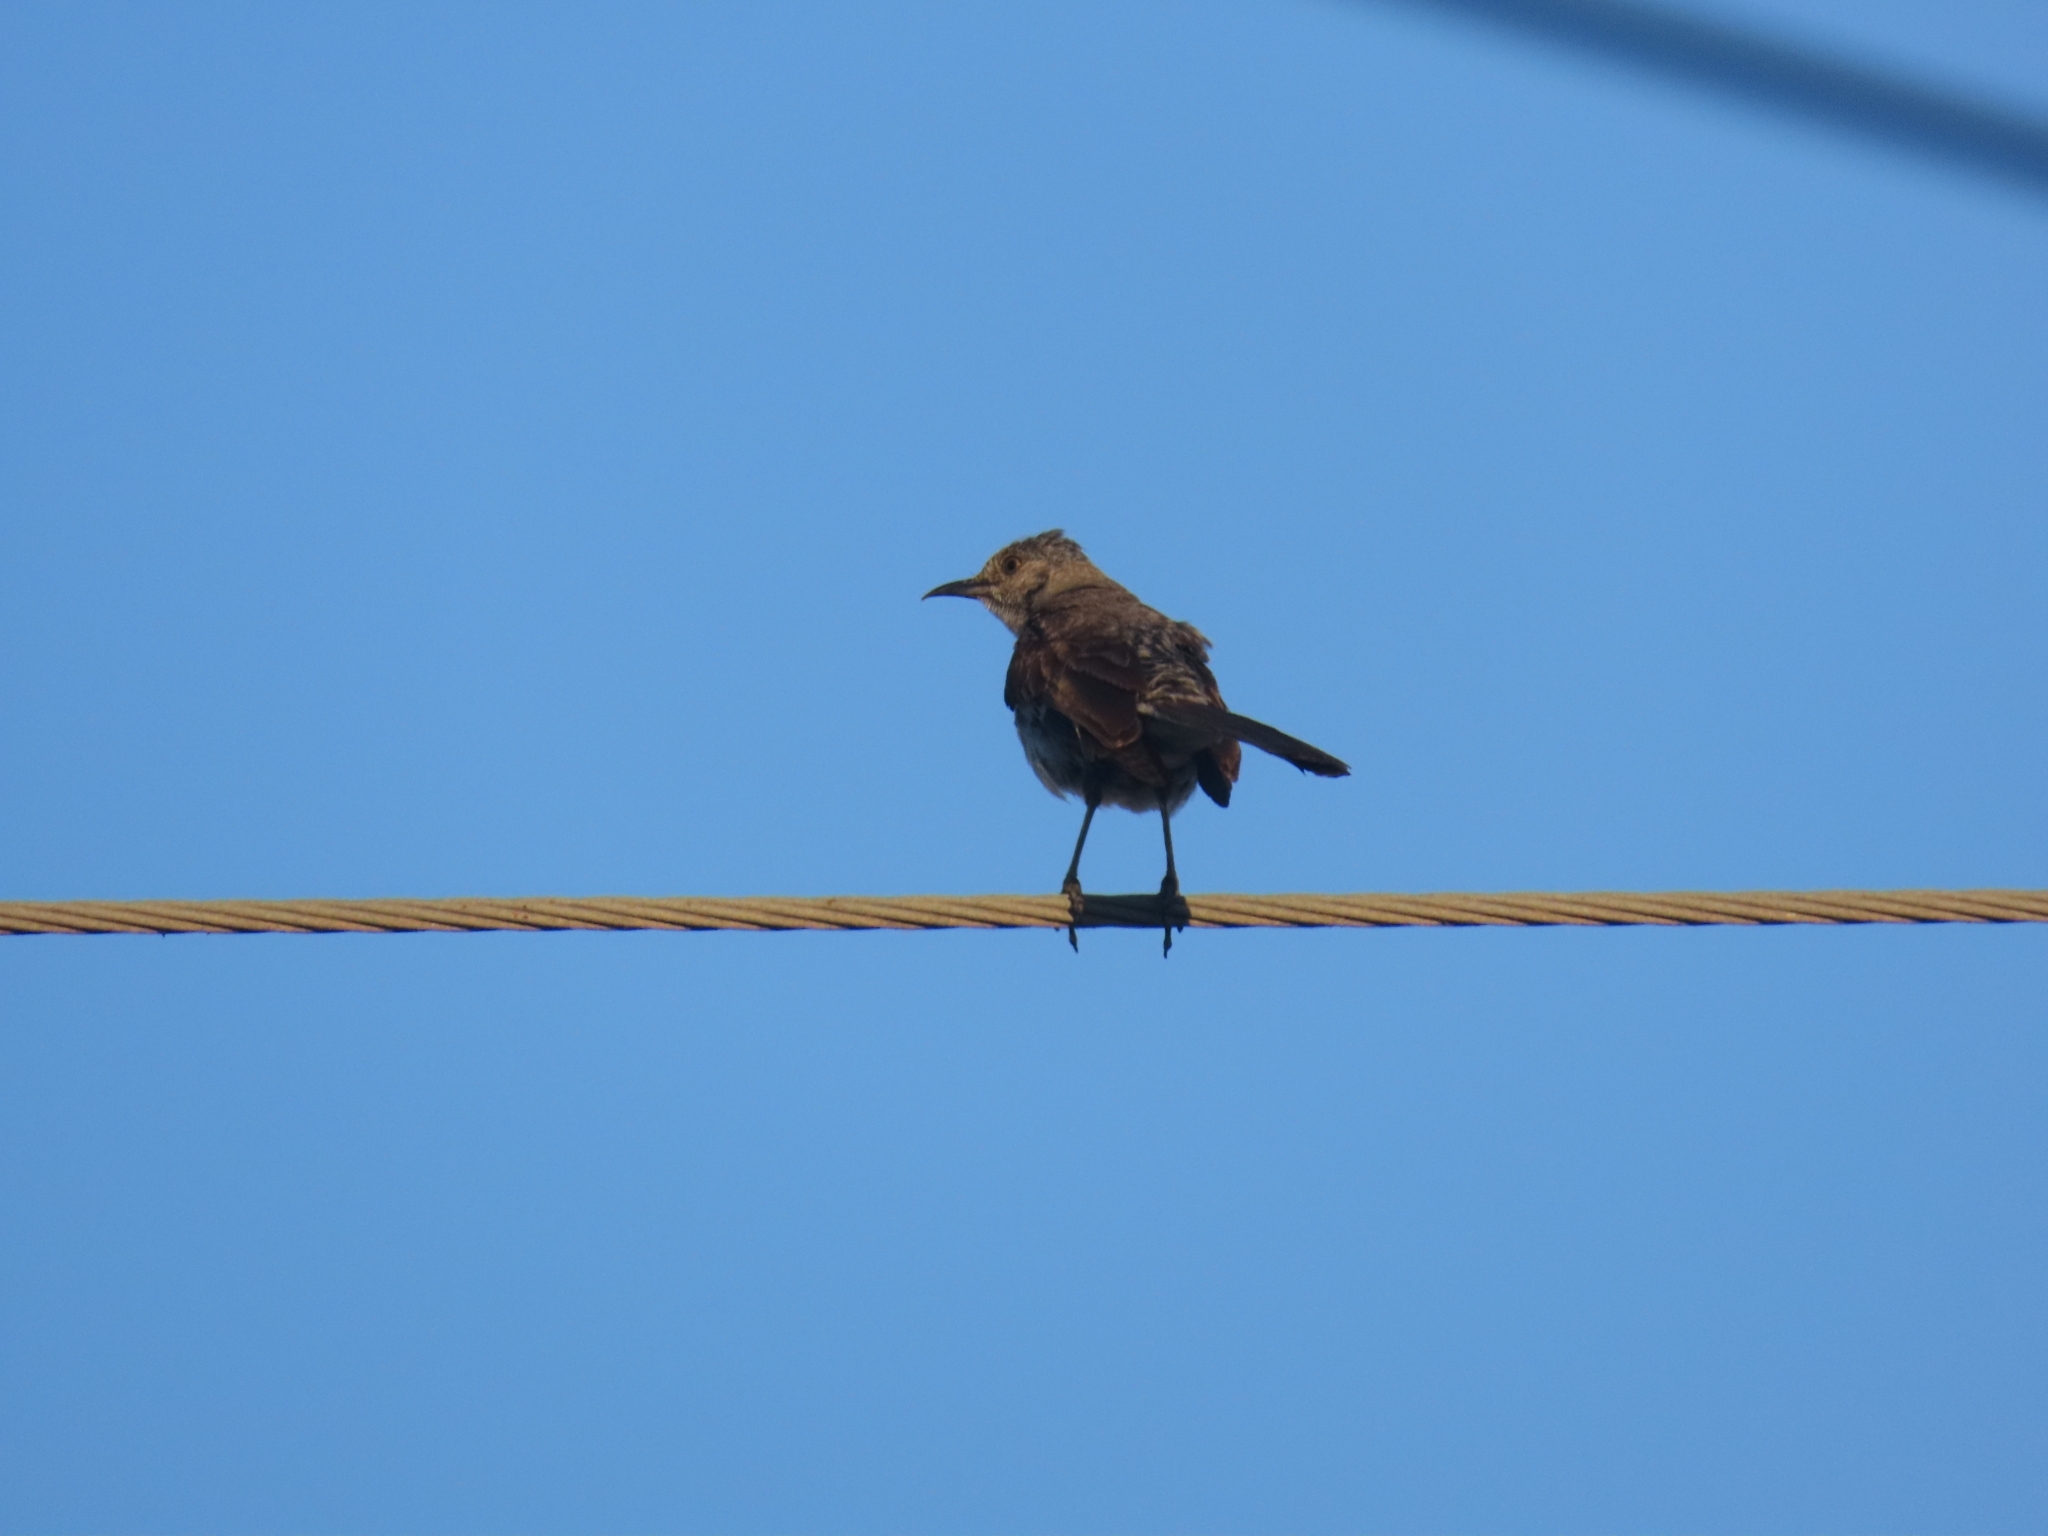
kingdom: Animalia
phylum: Chordata
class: Aves
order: Passeriformes
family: Mimidae
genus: Mimus
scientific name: Mimus polyglottos
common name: Northern mockingbird
